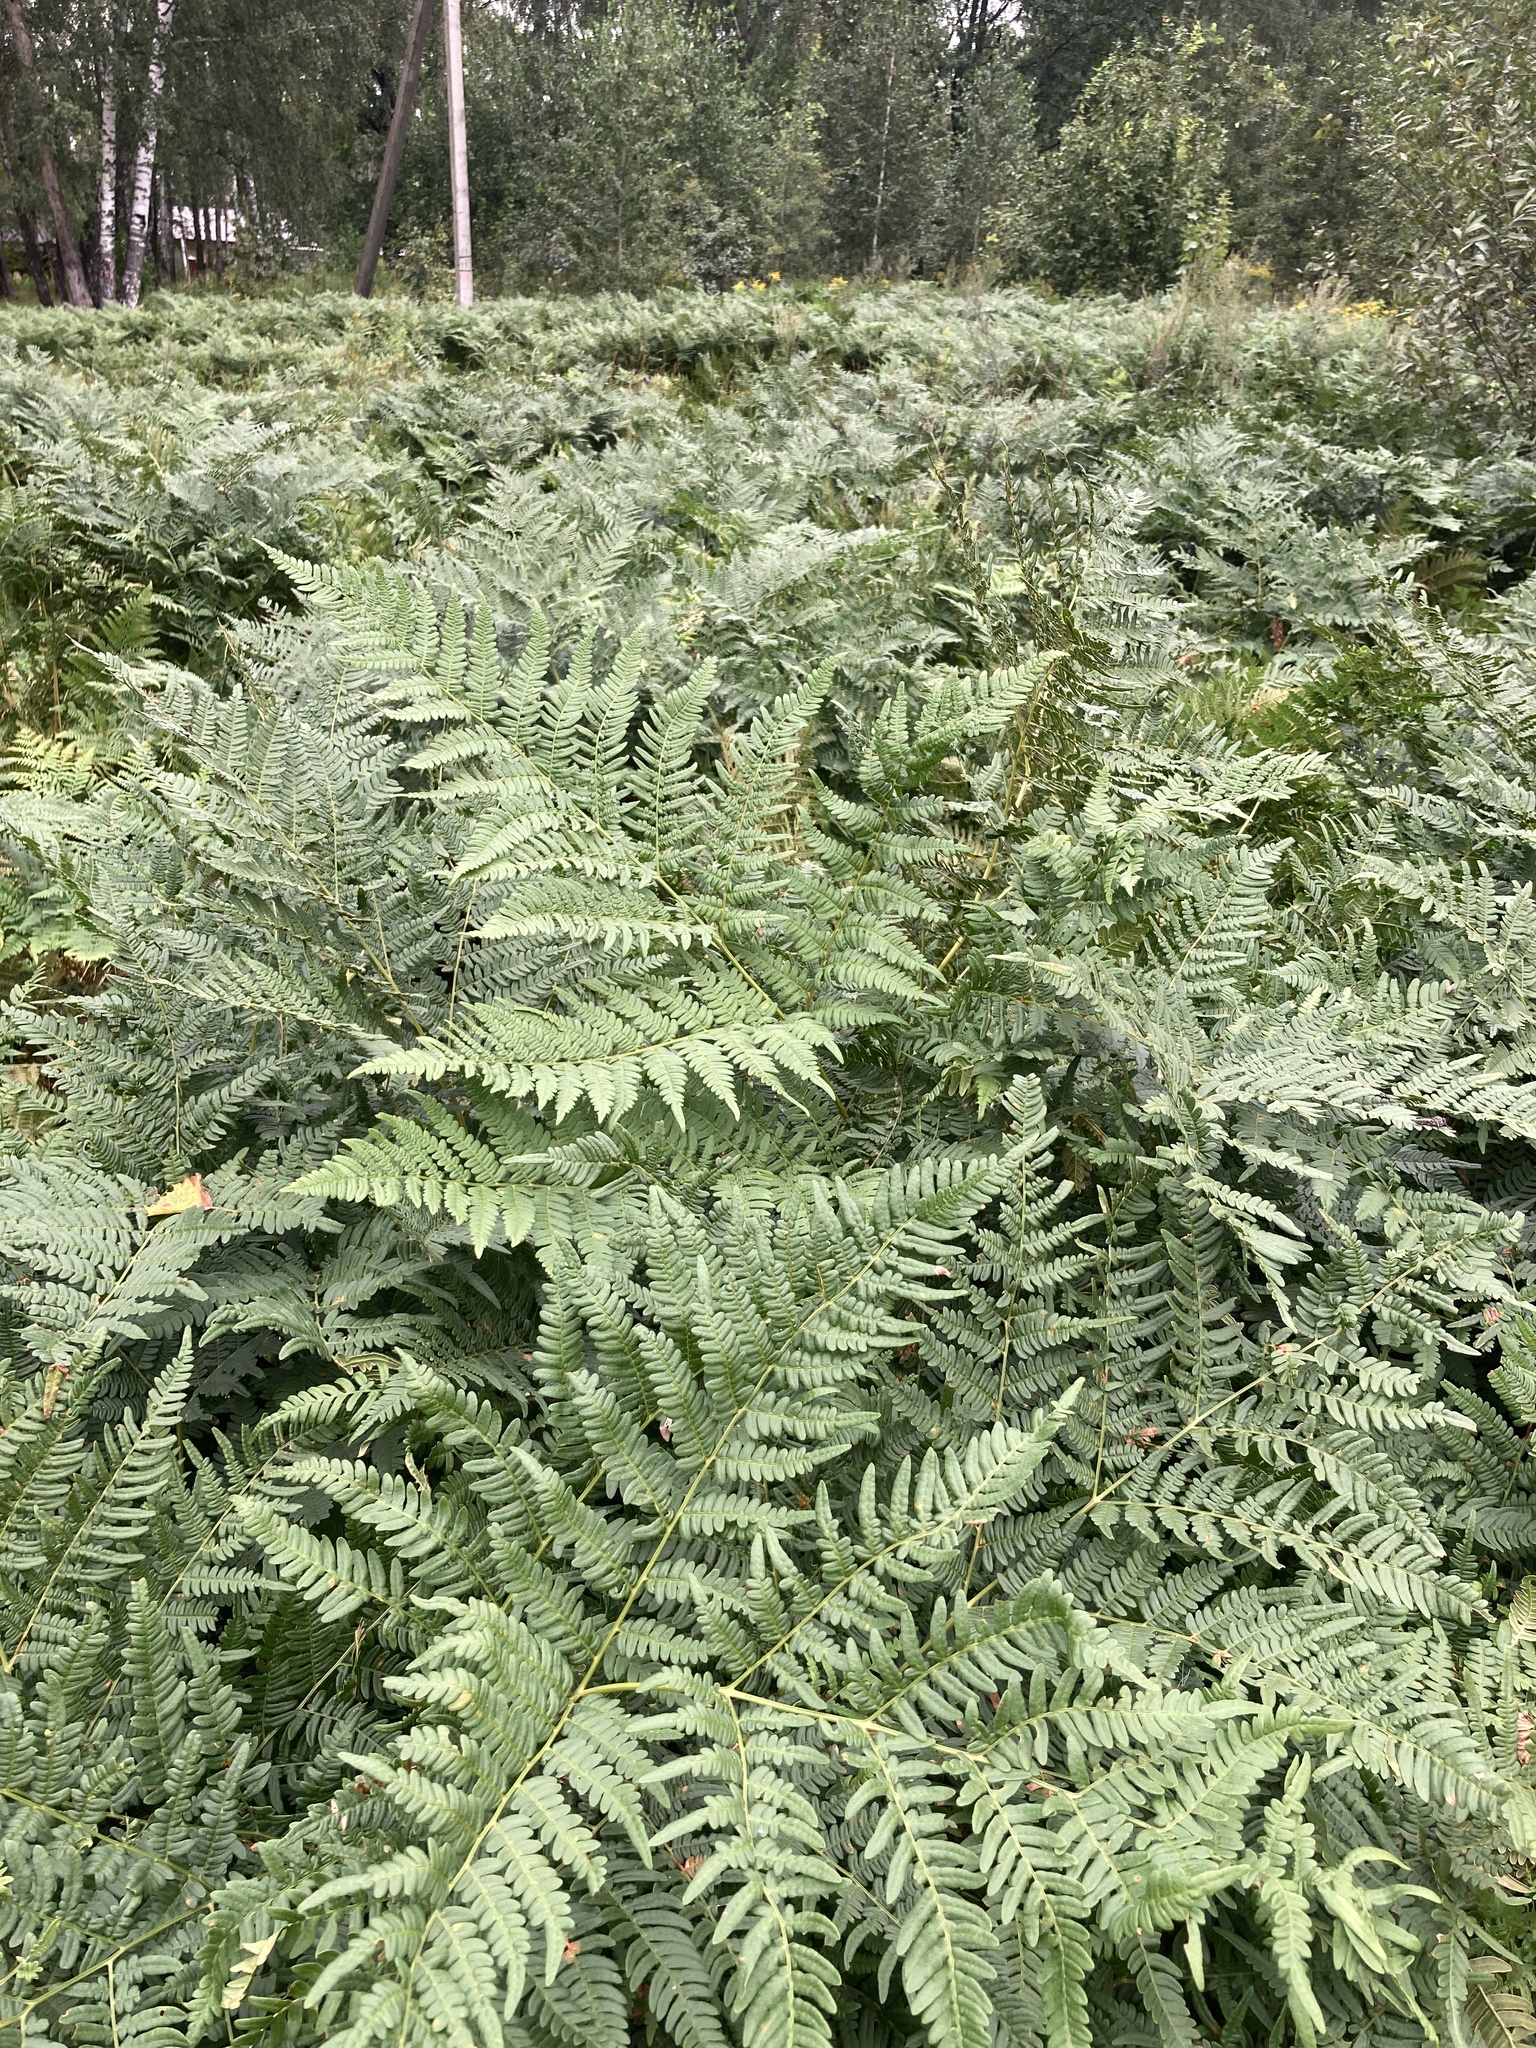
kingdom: Plantae
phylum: Tracheophyta
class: Polypodiopsida
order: Polypodiales
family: Dennstaedtiaceae
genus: Pteridium
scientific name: Pteridium aquilinum
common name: Bracken
